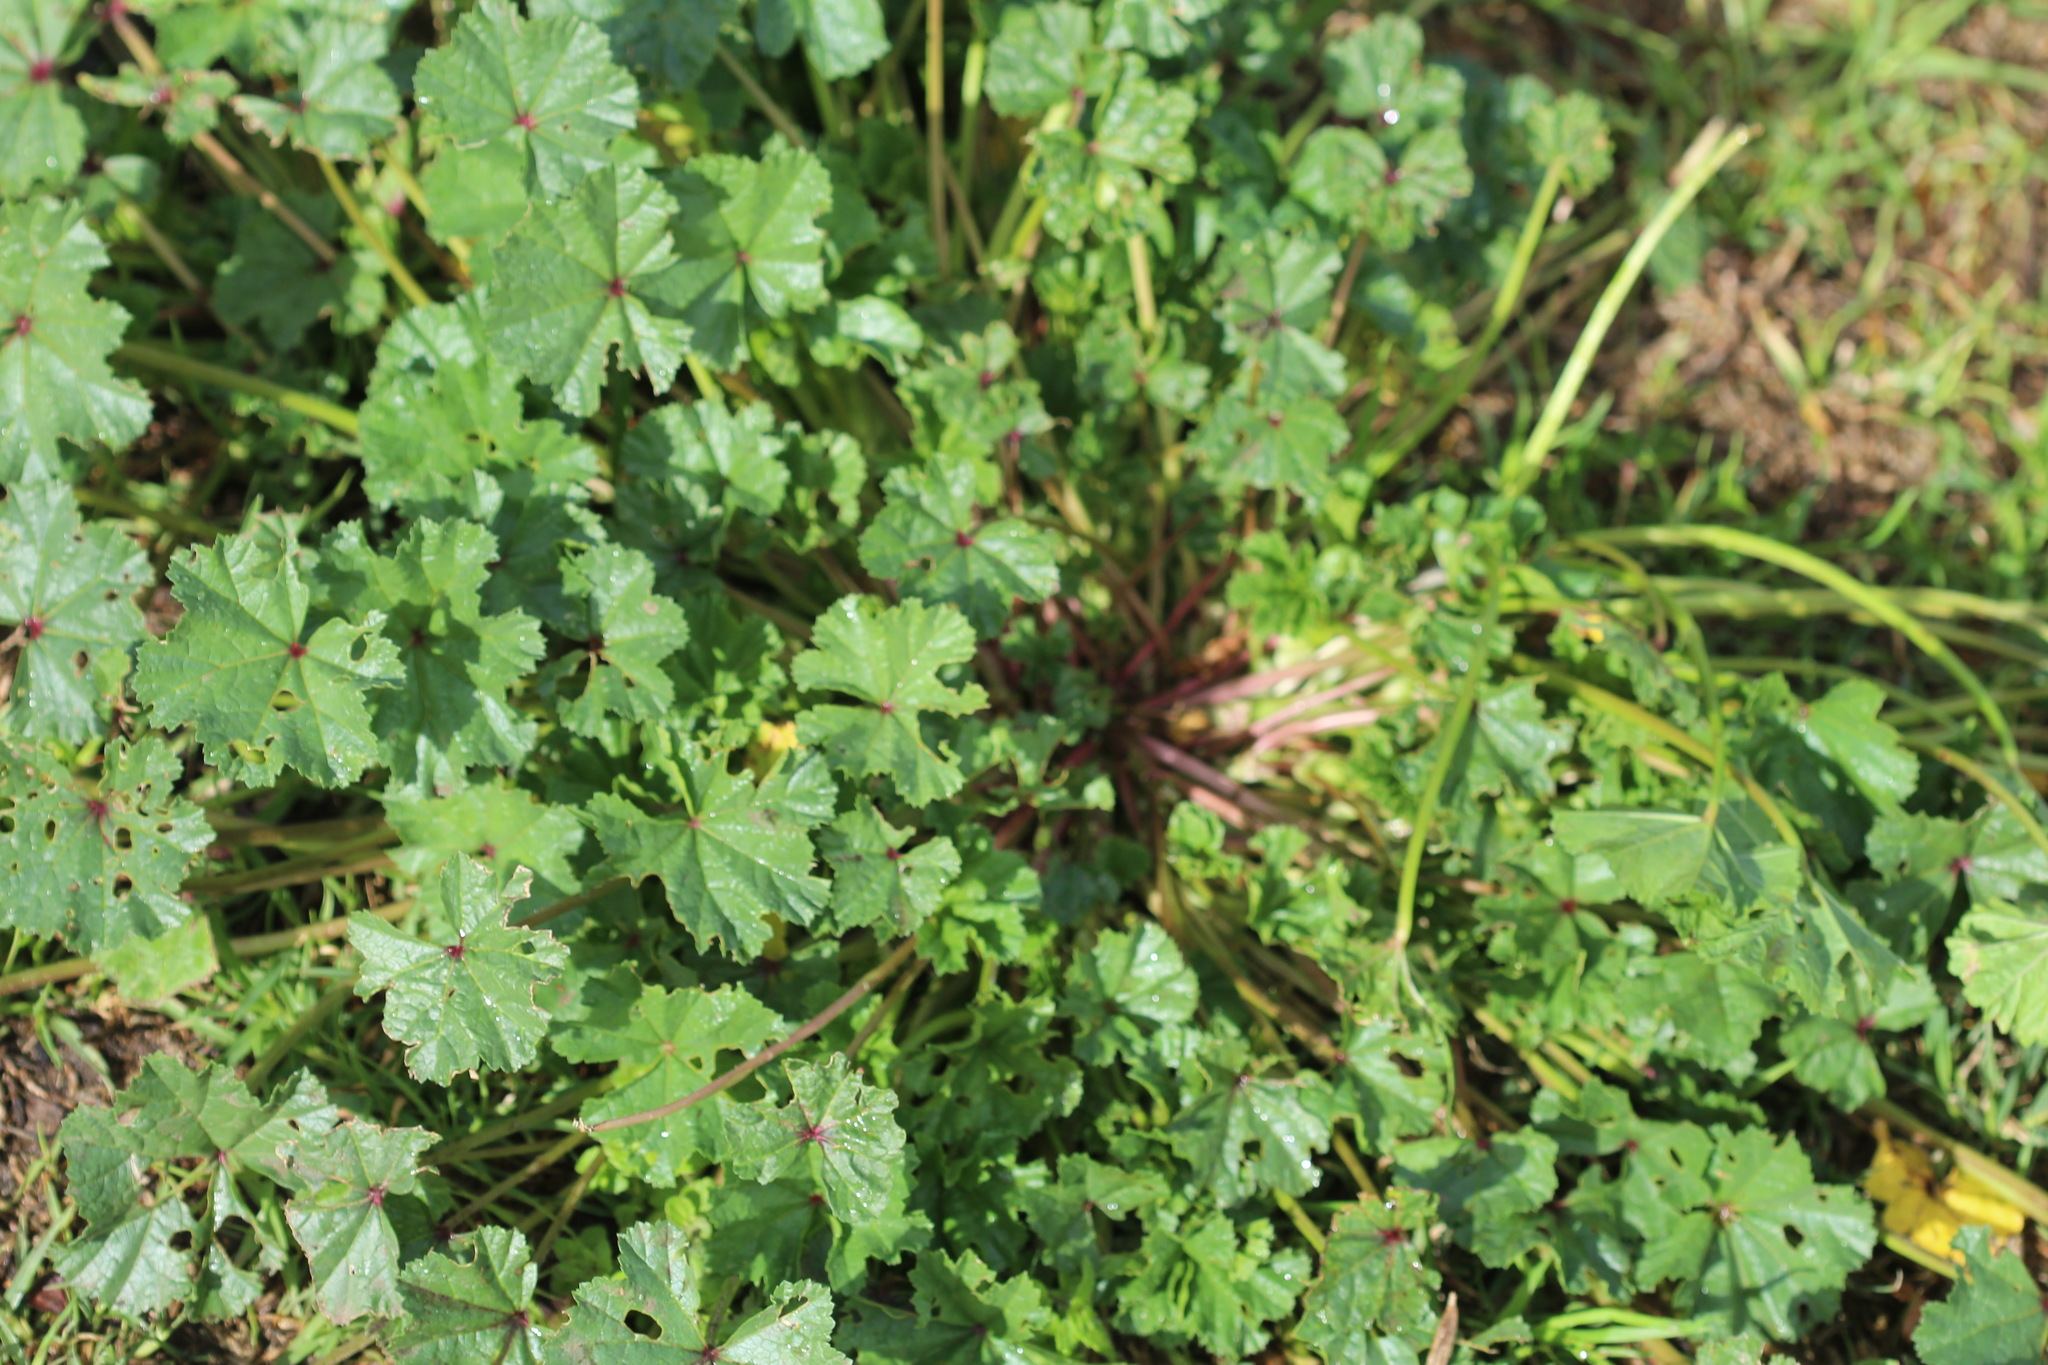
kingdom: Plantae
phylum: Tracheophyta
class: Magnoliopsida
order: Malvales
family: Malvaceae
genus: Malva
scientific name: Malva
